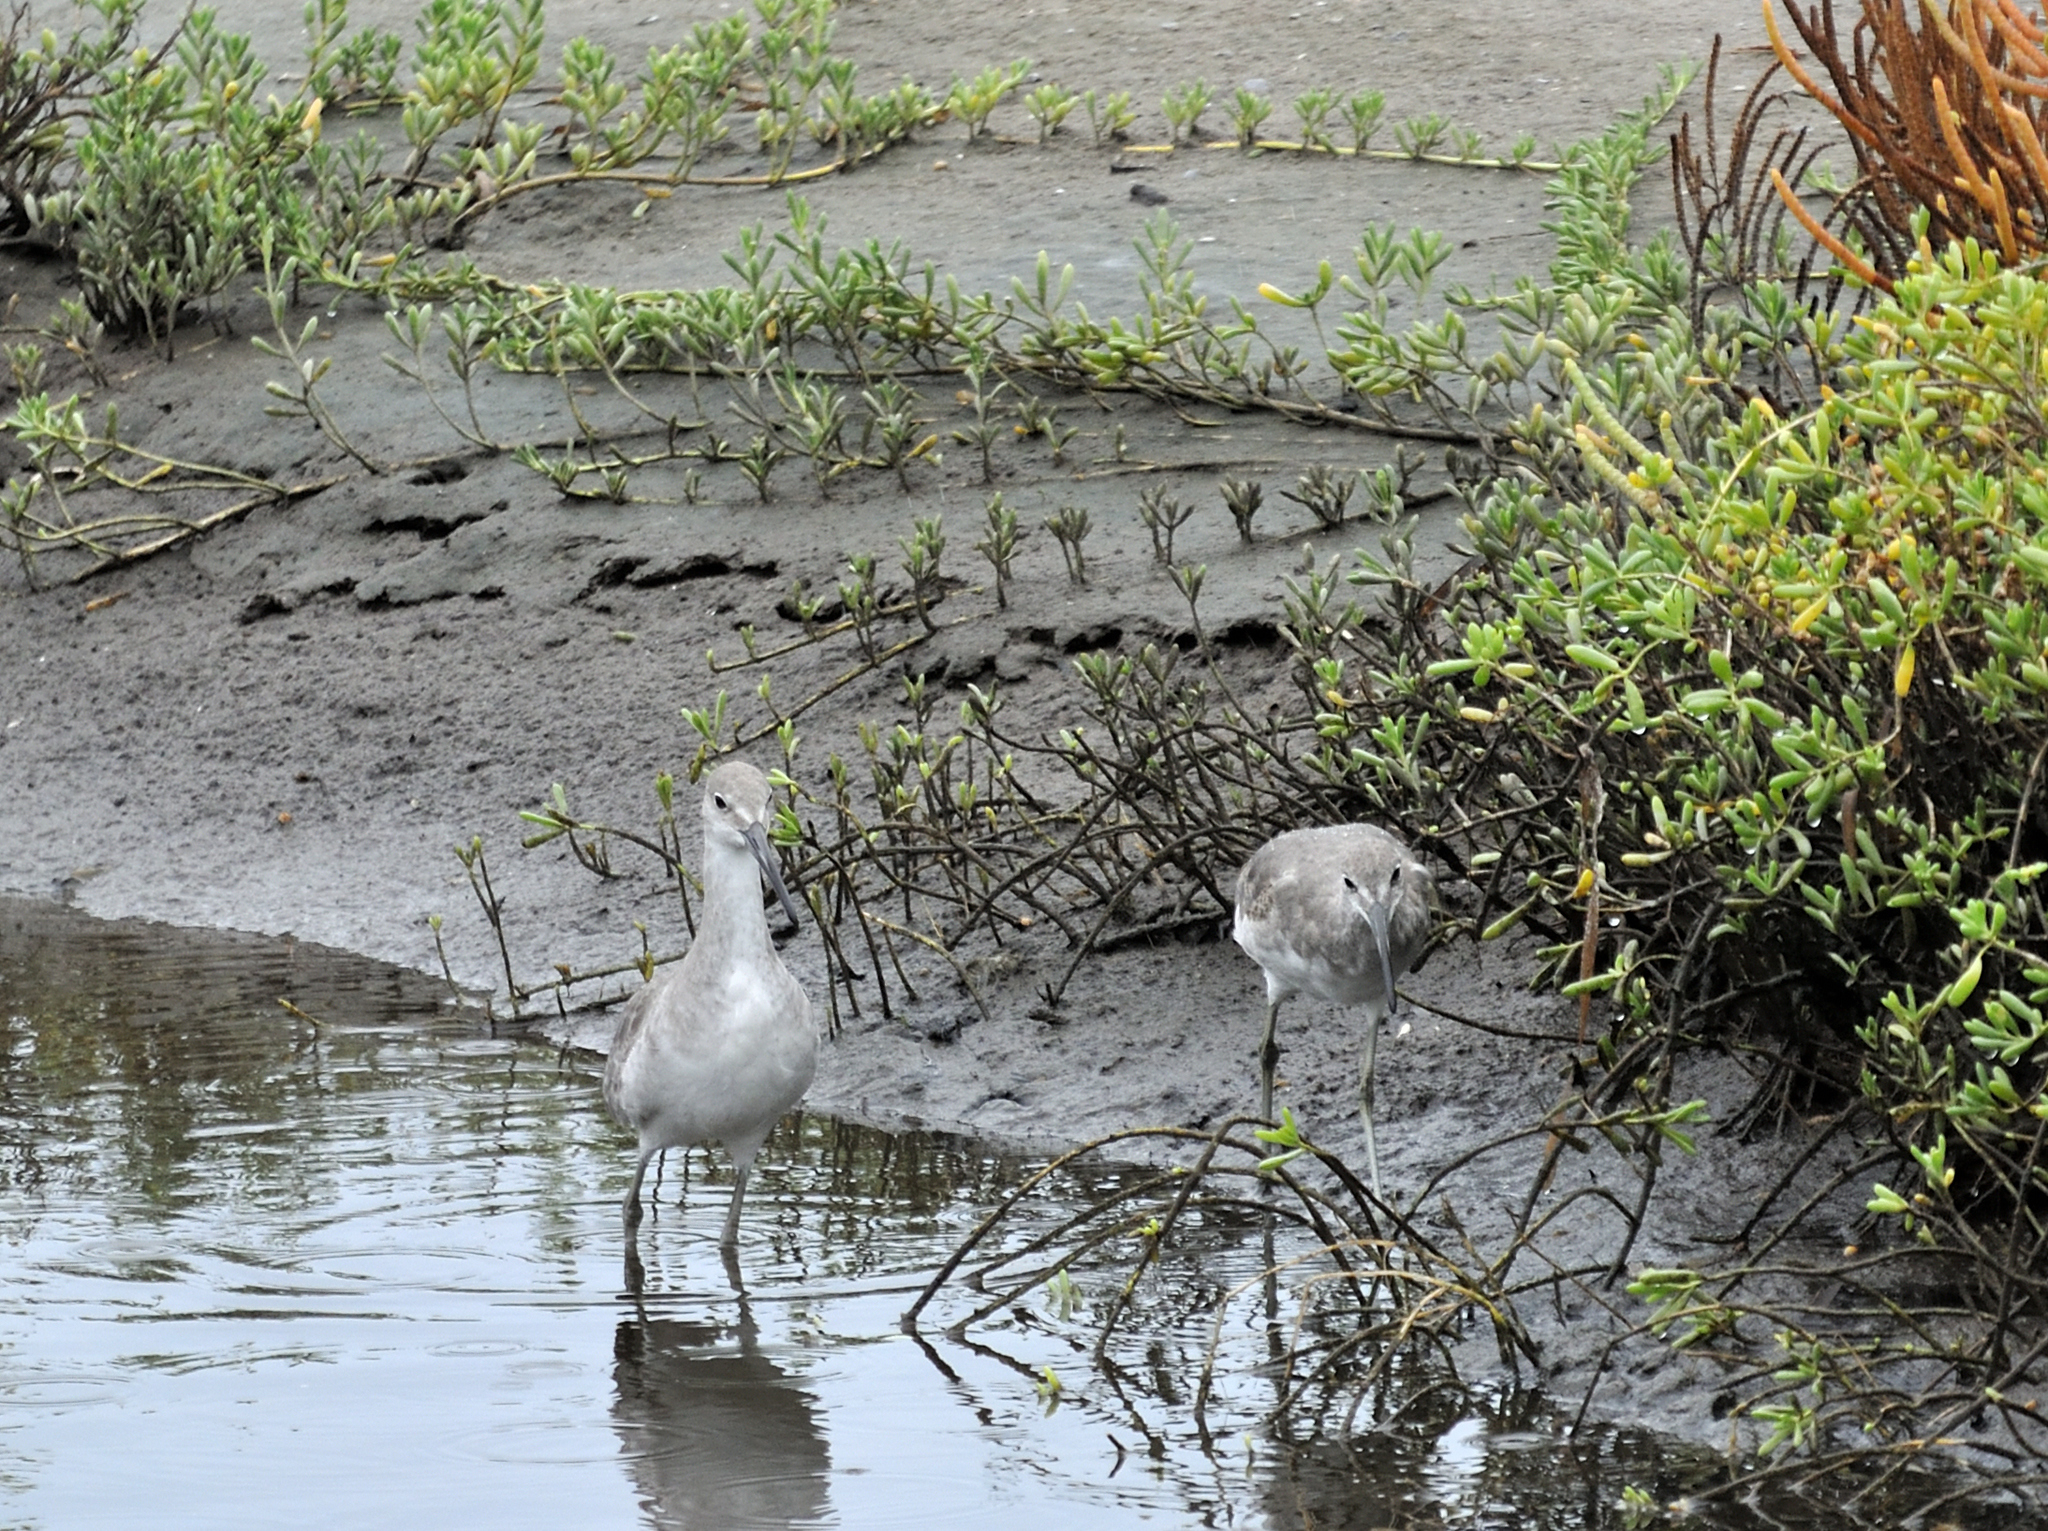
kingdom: Animalia
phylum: Chordata
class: Aves
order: Charadriiformes
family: Scolopacidae
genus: Tringa
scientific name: Tringa semipalmata
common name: Willet
